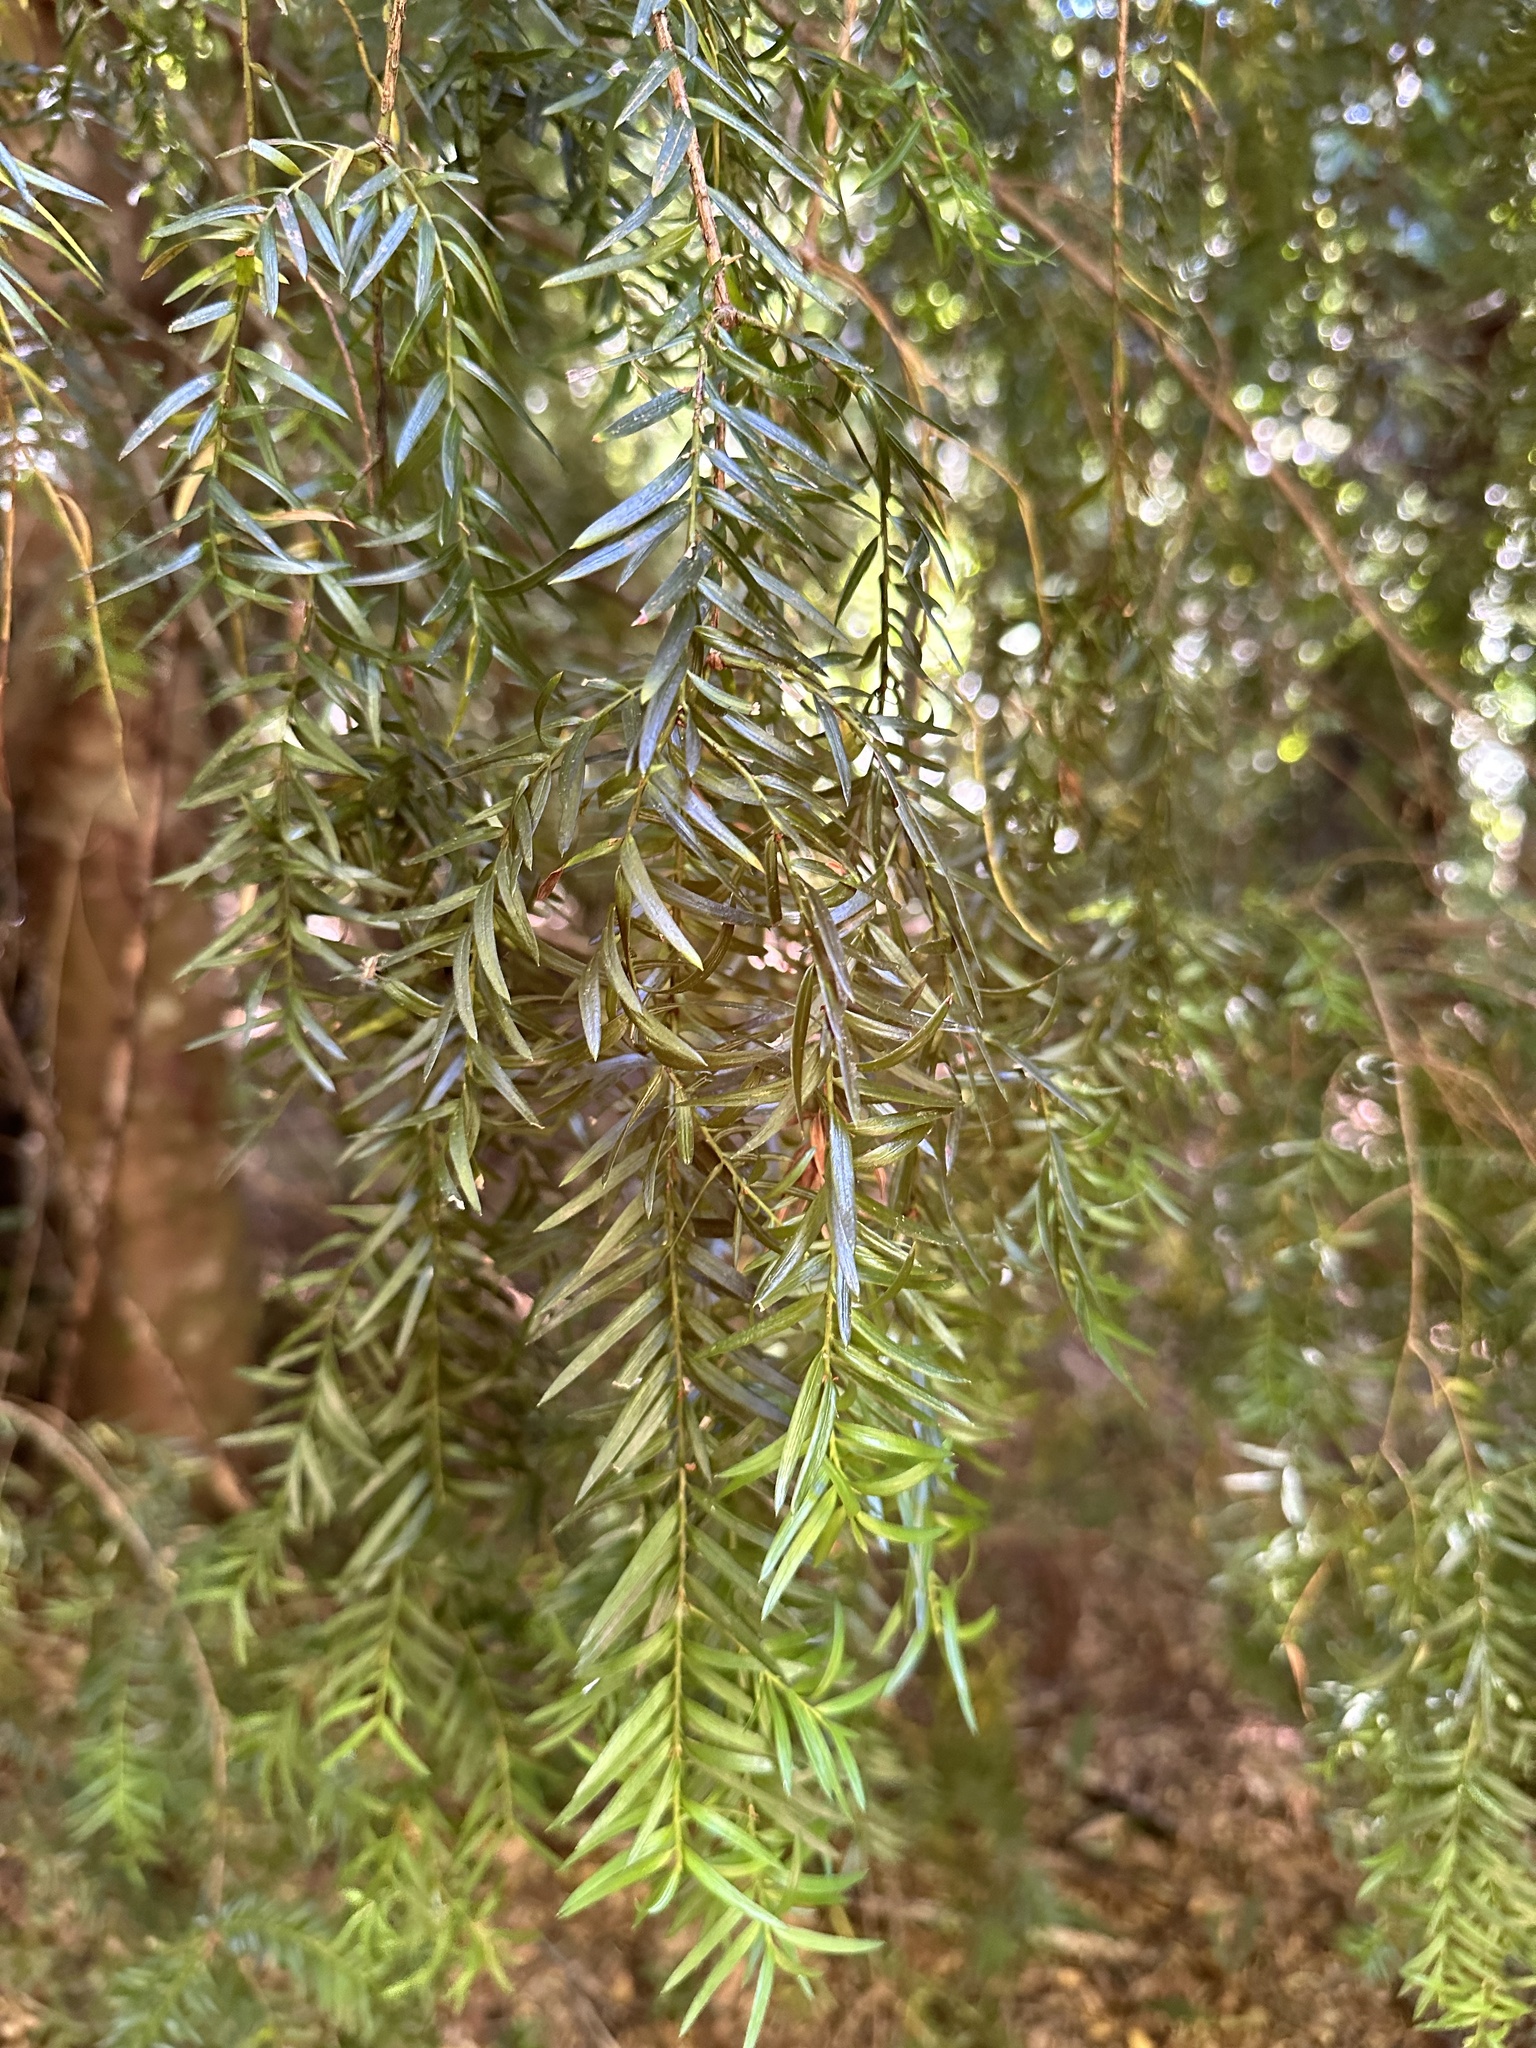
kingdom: Plantae
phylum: Tracheophyta
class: Pinopsida
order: Pinales
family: Podocarpaceae
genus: Saxegothaea
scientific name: Saxegothaea conspicua
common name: Prince albert's yew
